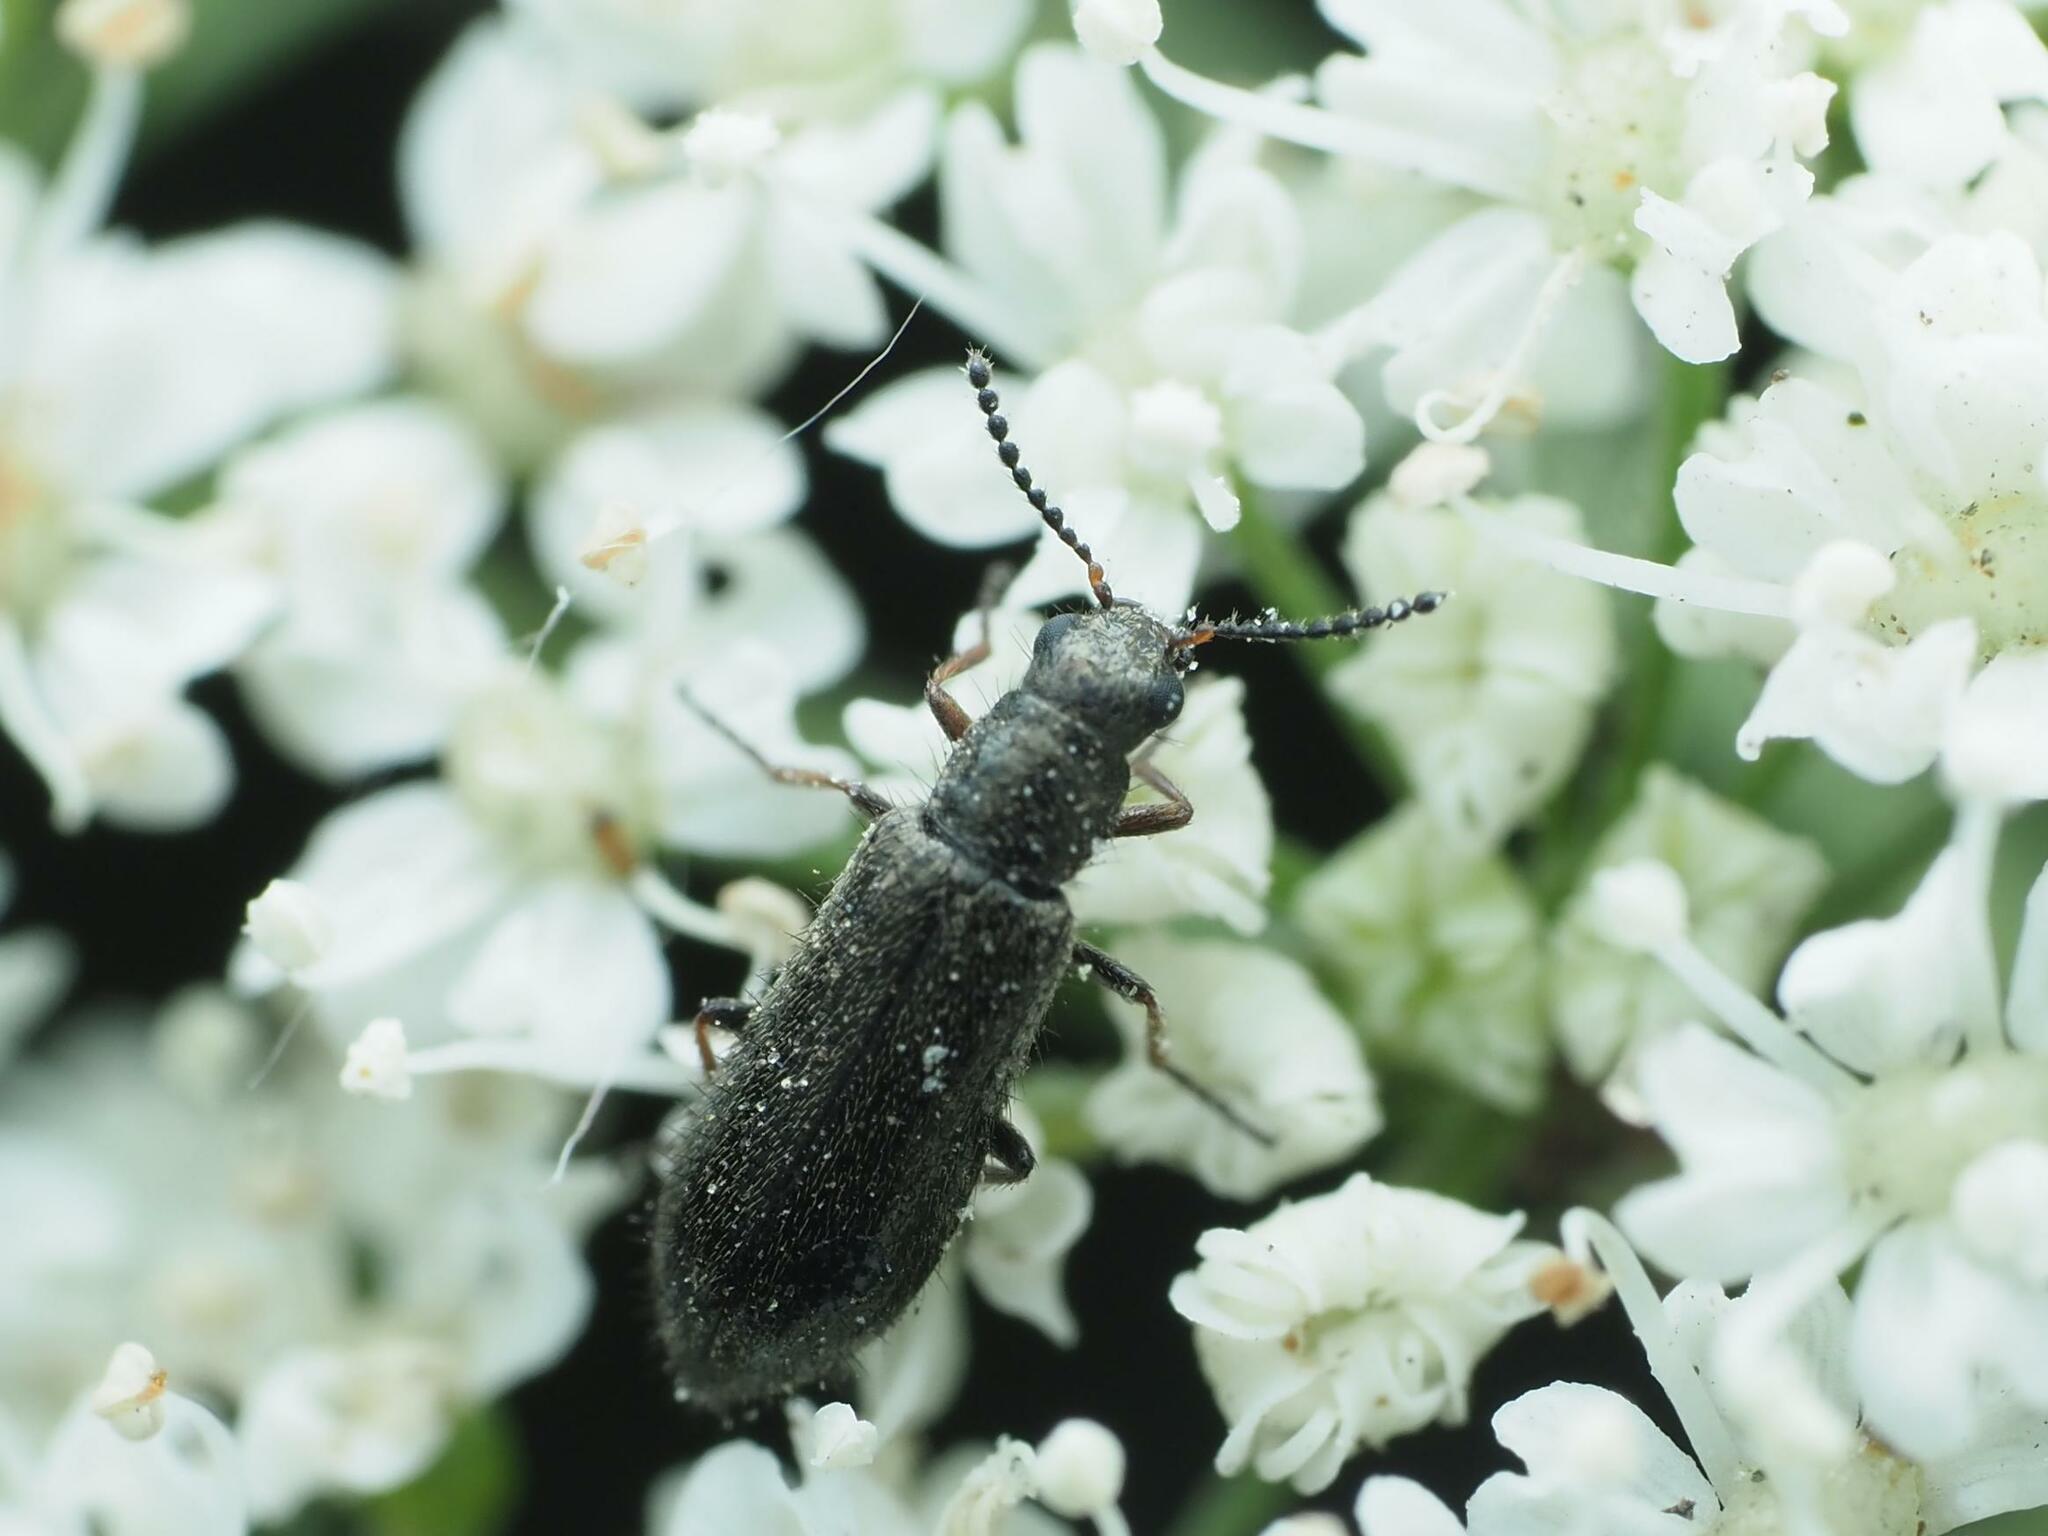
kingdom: Animalia
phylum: Arthropoda
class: Insecta
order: Coleoptera
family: Melyridae
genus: Dasytes
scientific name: Dasytes plumbeus
